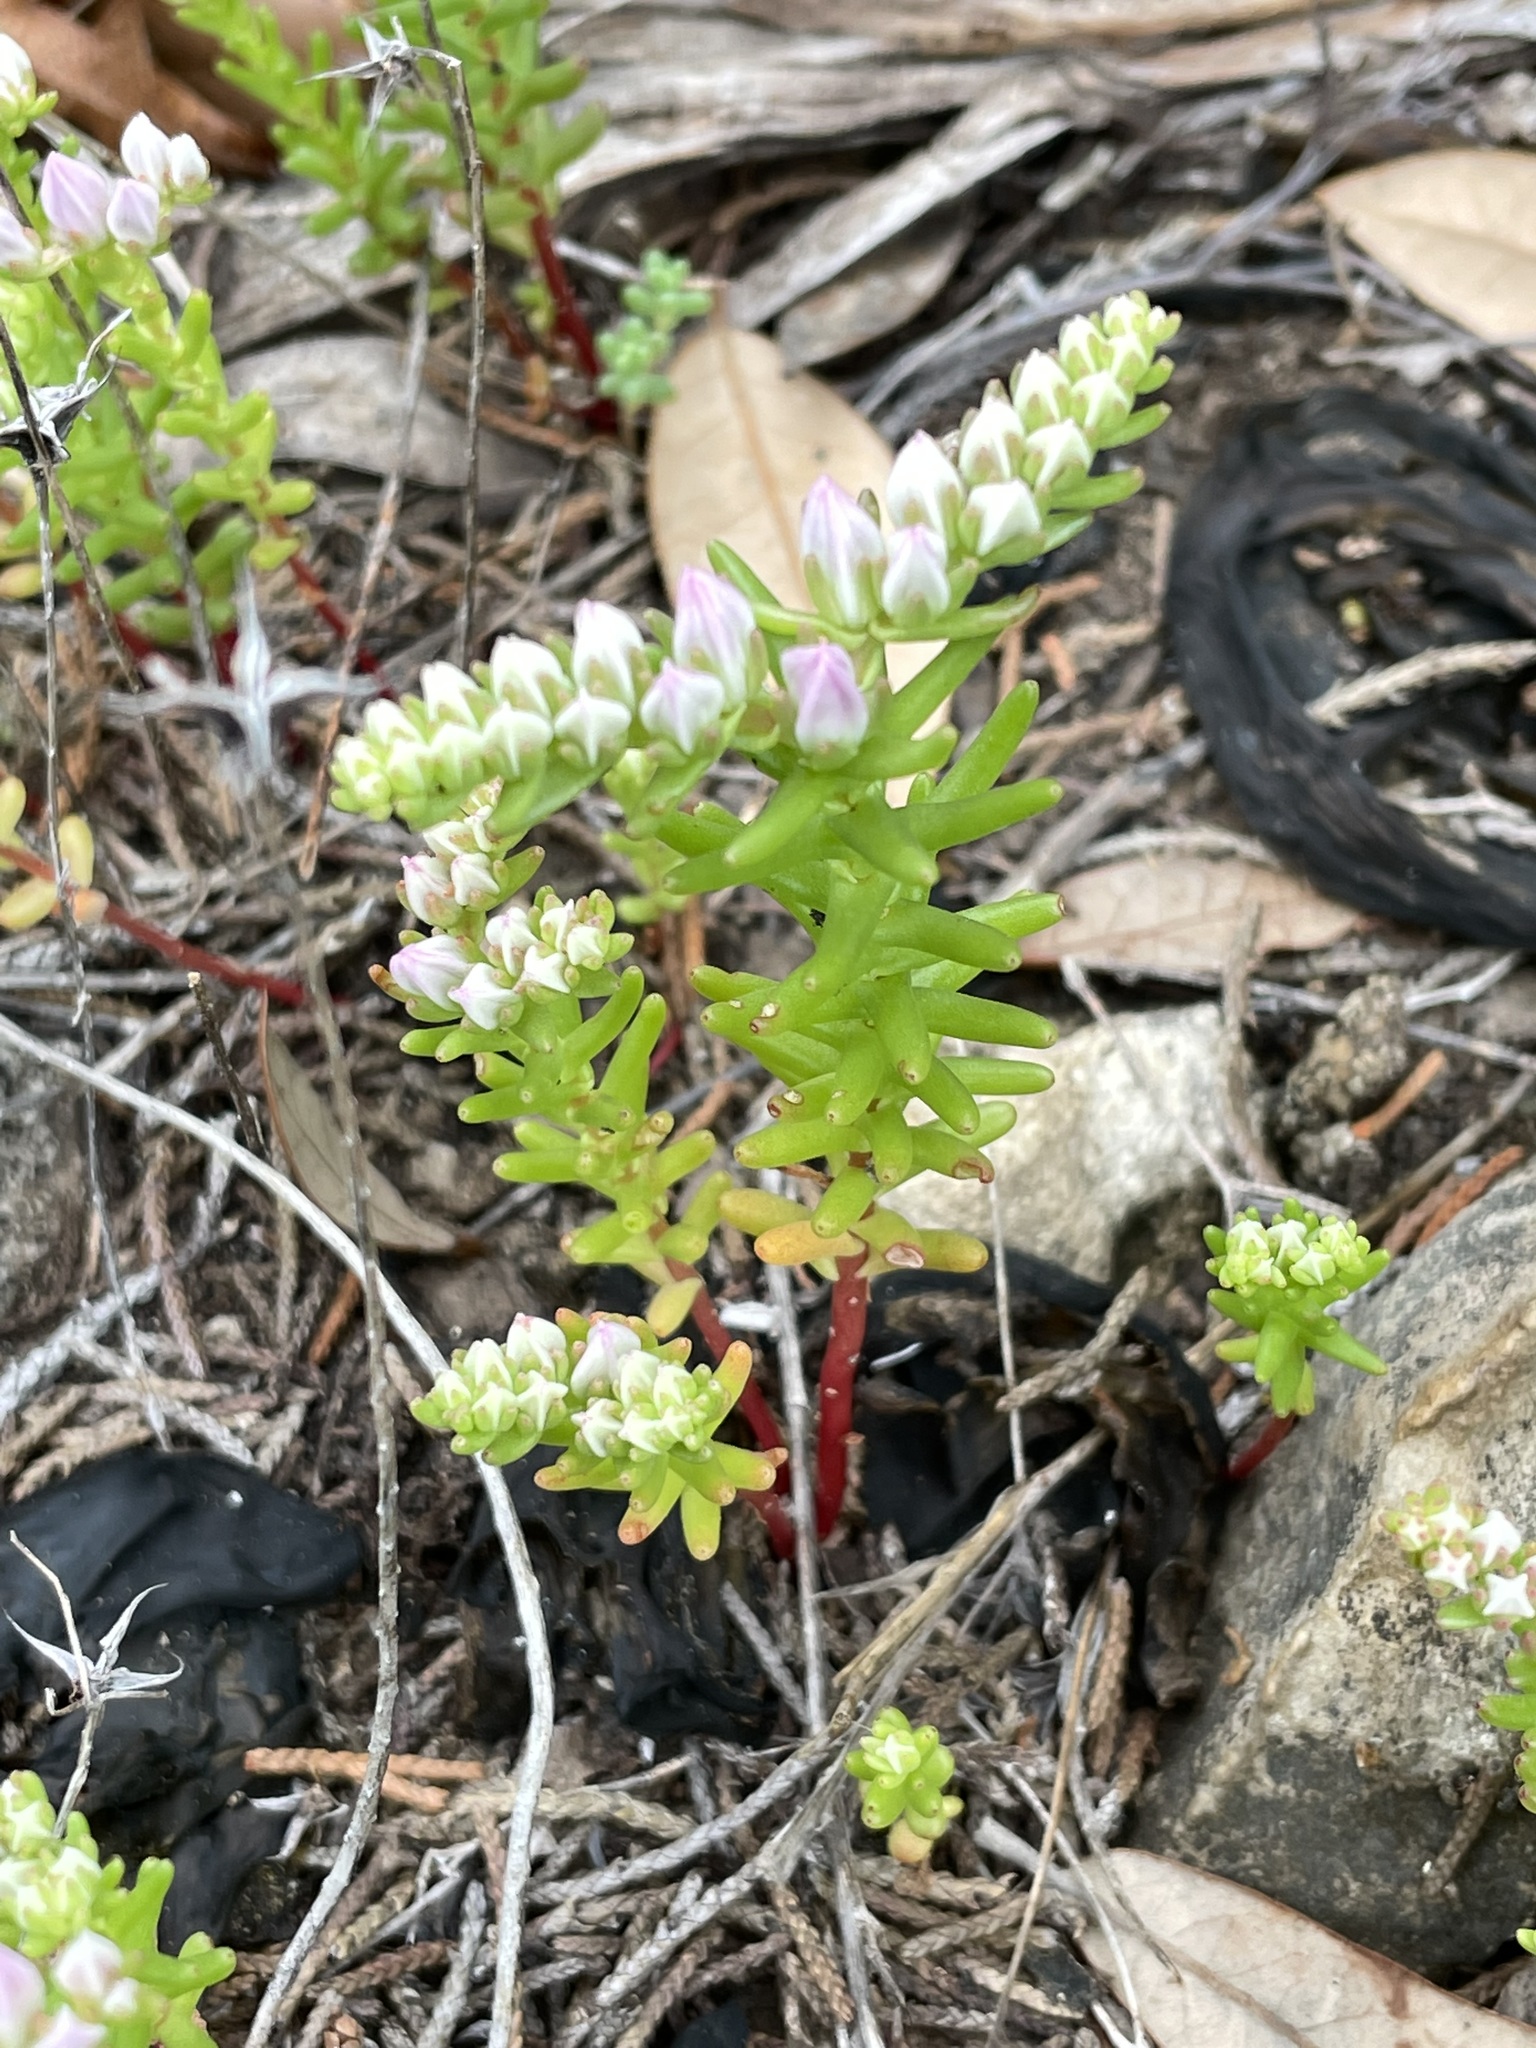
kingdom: Plantae
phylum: Tracheophyta
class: Magnoliopsida
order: Saxifragales
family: Crassulaceae
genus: Sedum
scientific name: Sedum pulchellum
